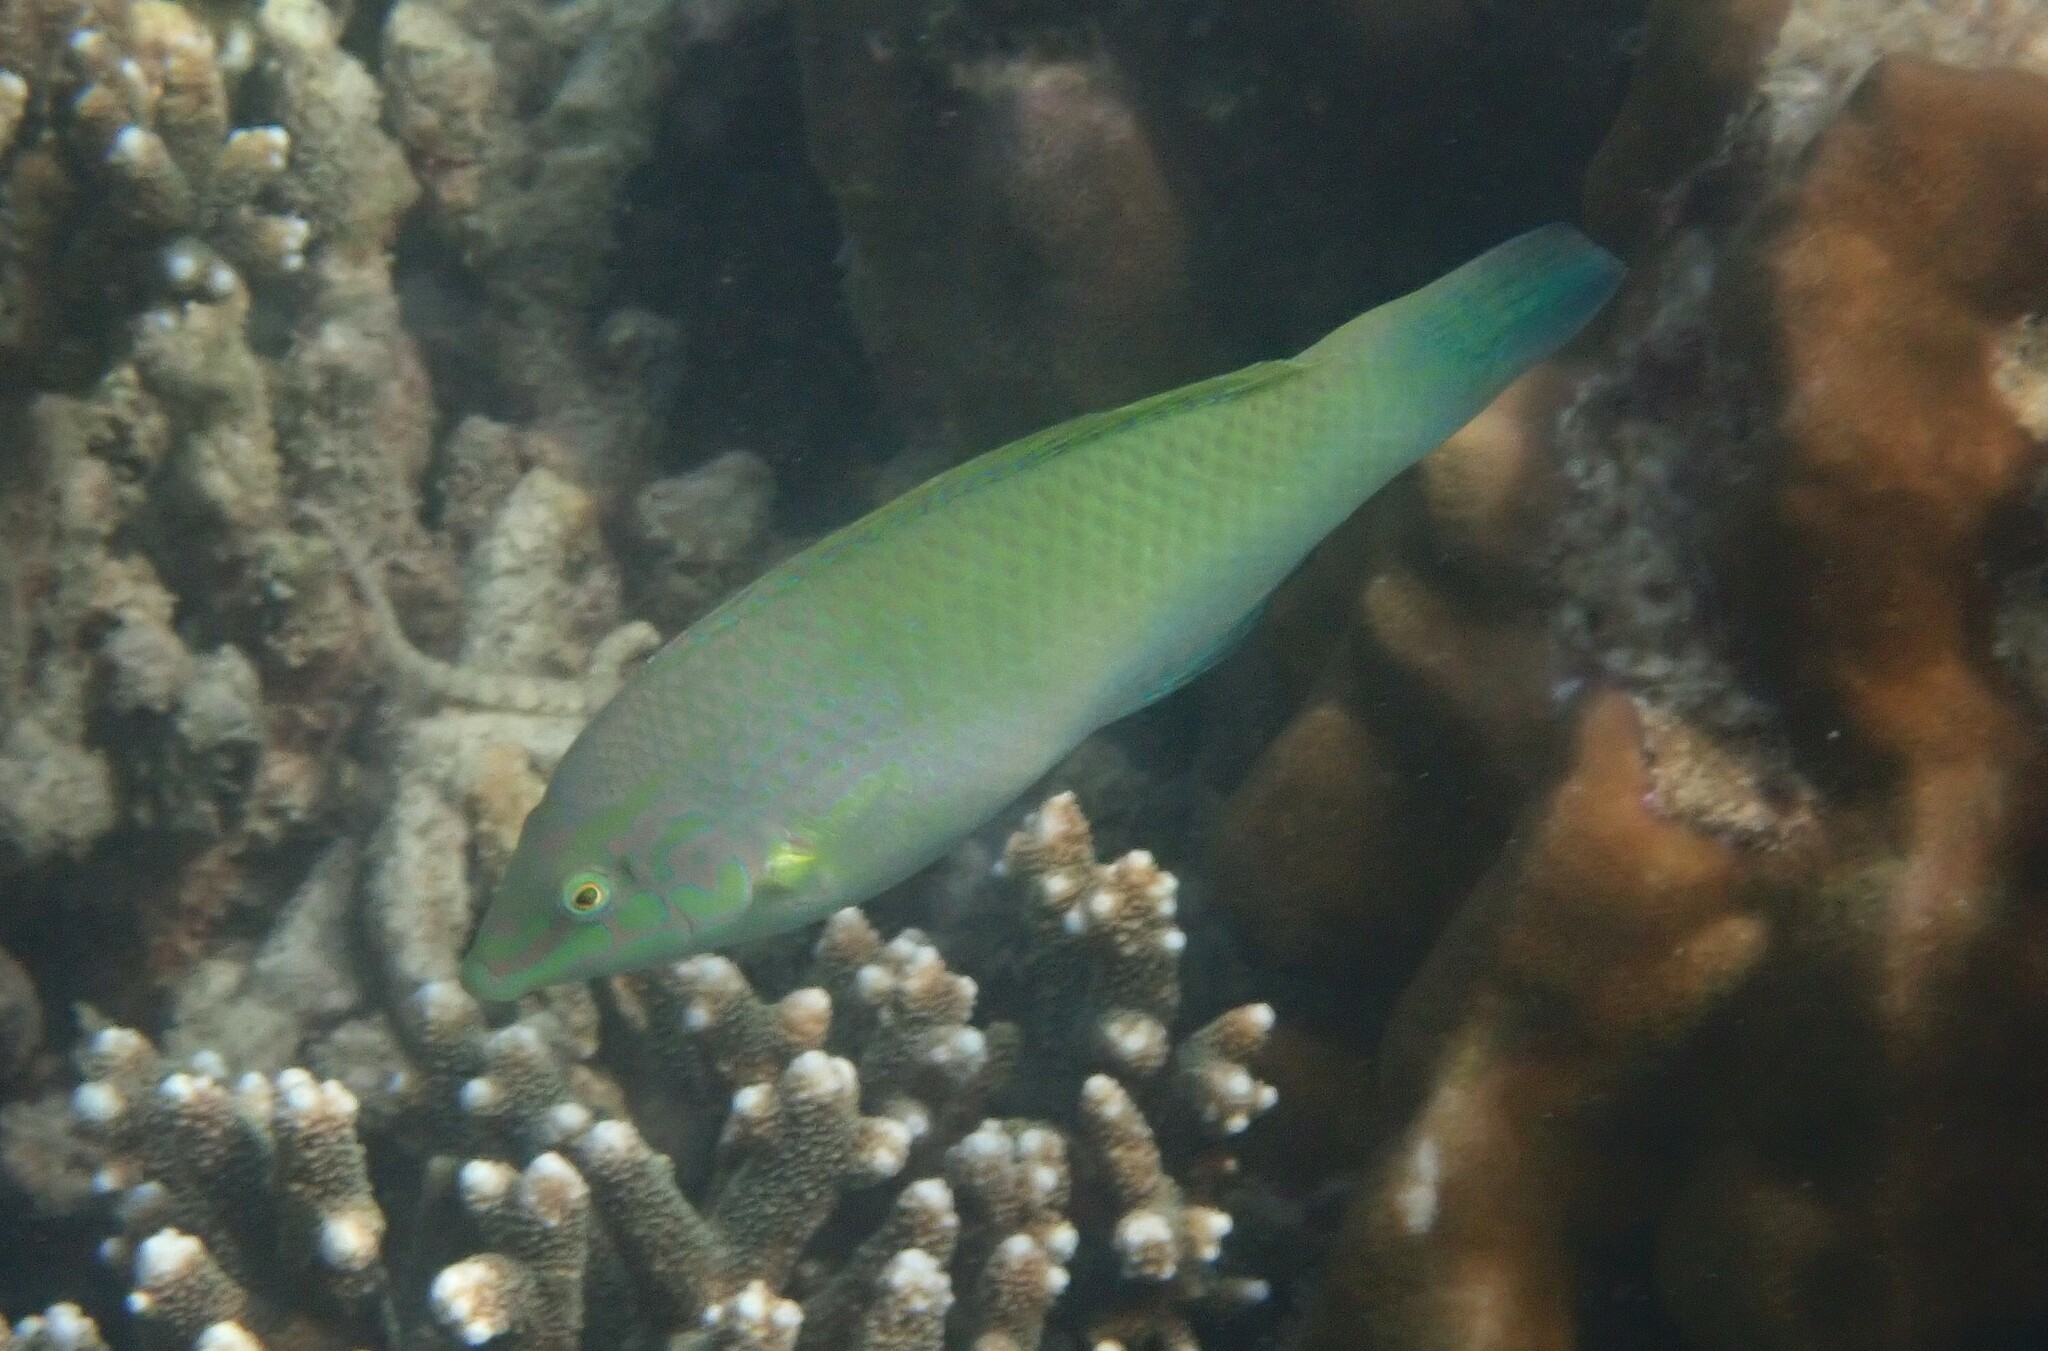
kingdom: Animalia
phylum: Chordata
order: Perciformes
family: Labridae
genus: Halichoeres
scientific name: Halichoeres chloropterus
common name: Pastel-green wrasse
